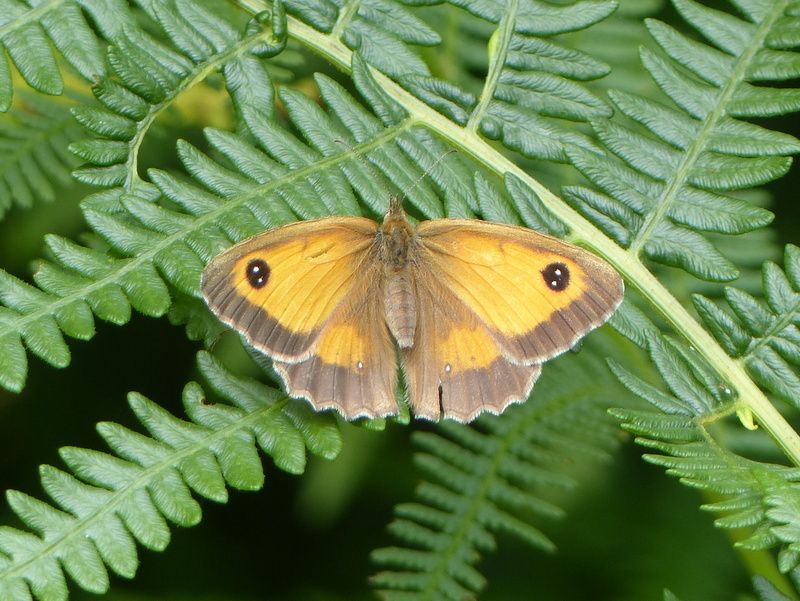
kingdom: Animalia
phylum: Arthropoda
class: Insecta
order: Lepidoptera
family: Nymphalidae
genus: Pyronia
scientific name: Pyronia tithonus
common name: Gatekeeper
